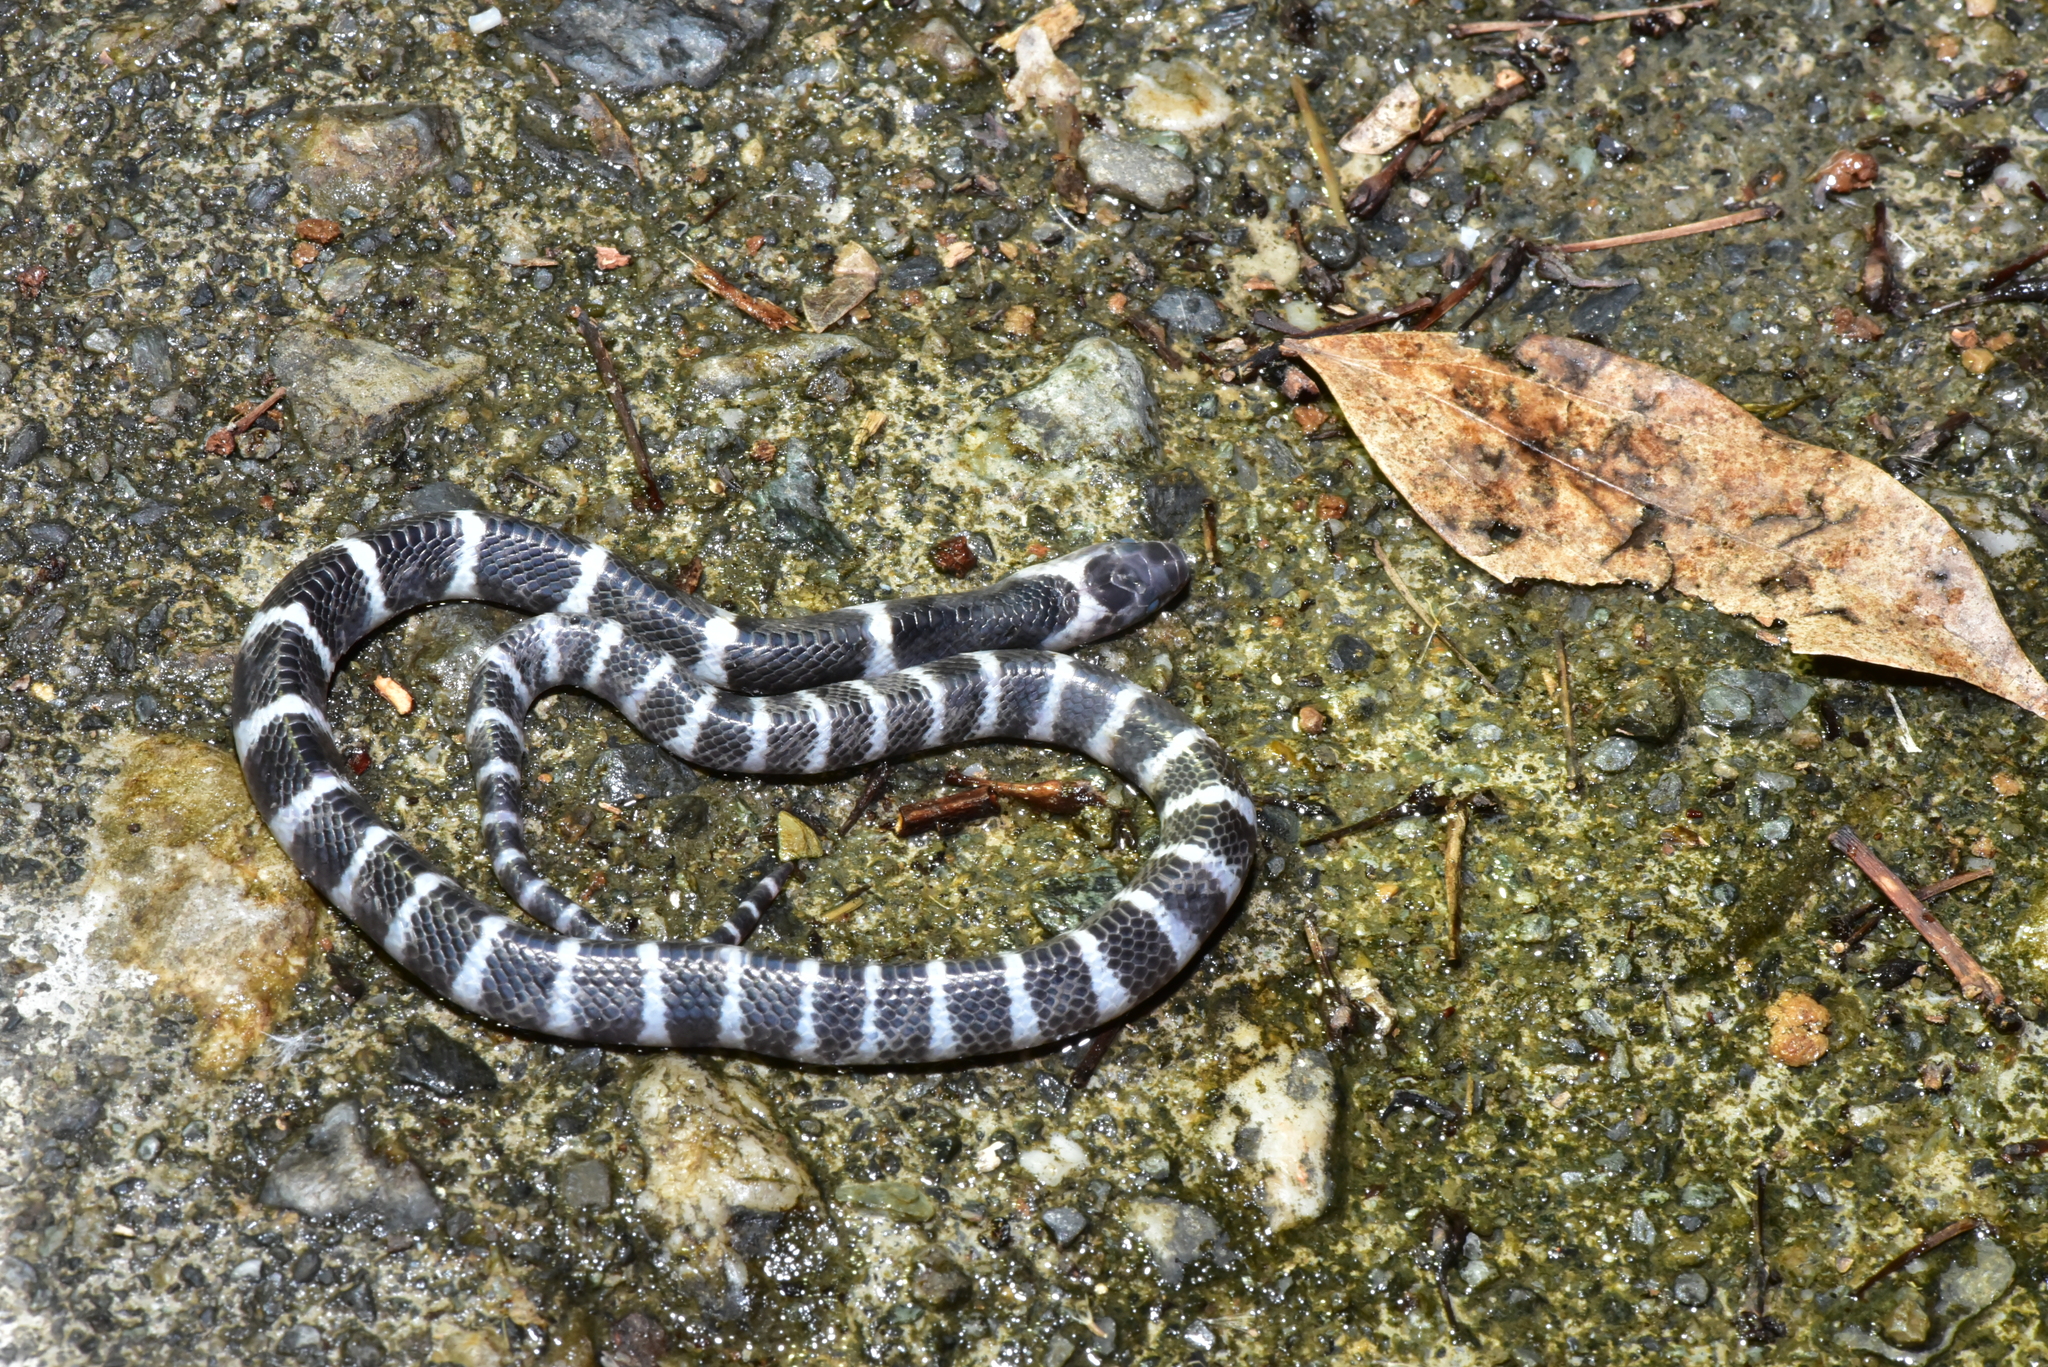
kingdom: Animalia
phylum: Chordata
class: Squamata
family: Elapidae
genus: Bungarus
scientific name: Bungarus multicinctus
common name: Many-banded krait
